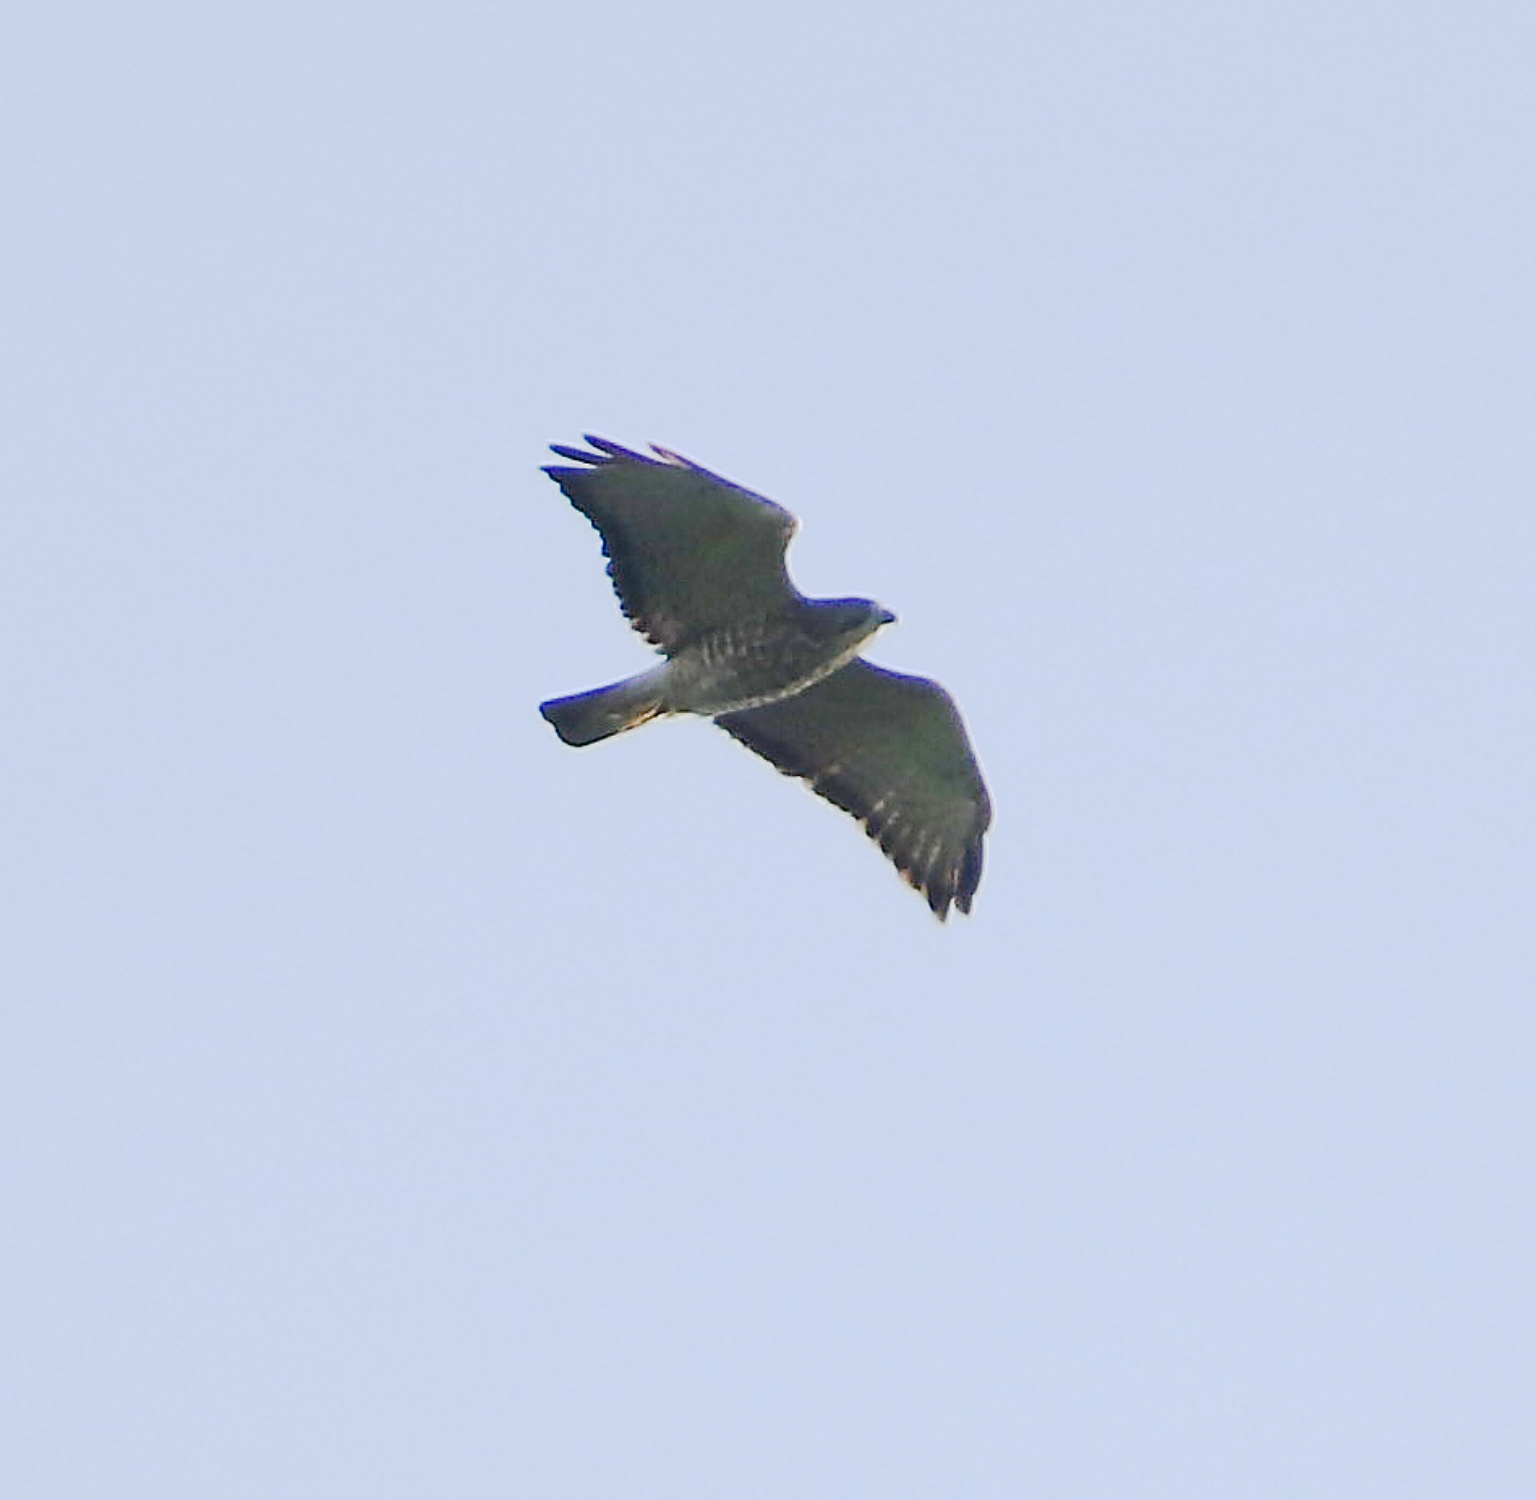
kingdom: Animalia
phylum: Chordata
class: Aves
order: Accipitriformes
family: Accipitridae
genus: Buteo
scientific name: Buteo platypterus
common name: Broad-winged hawk
